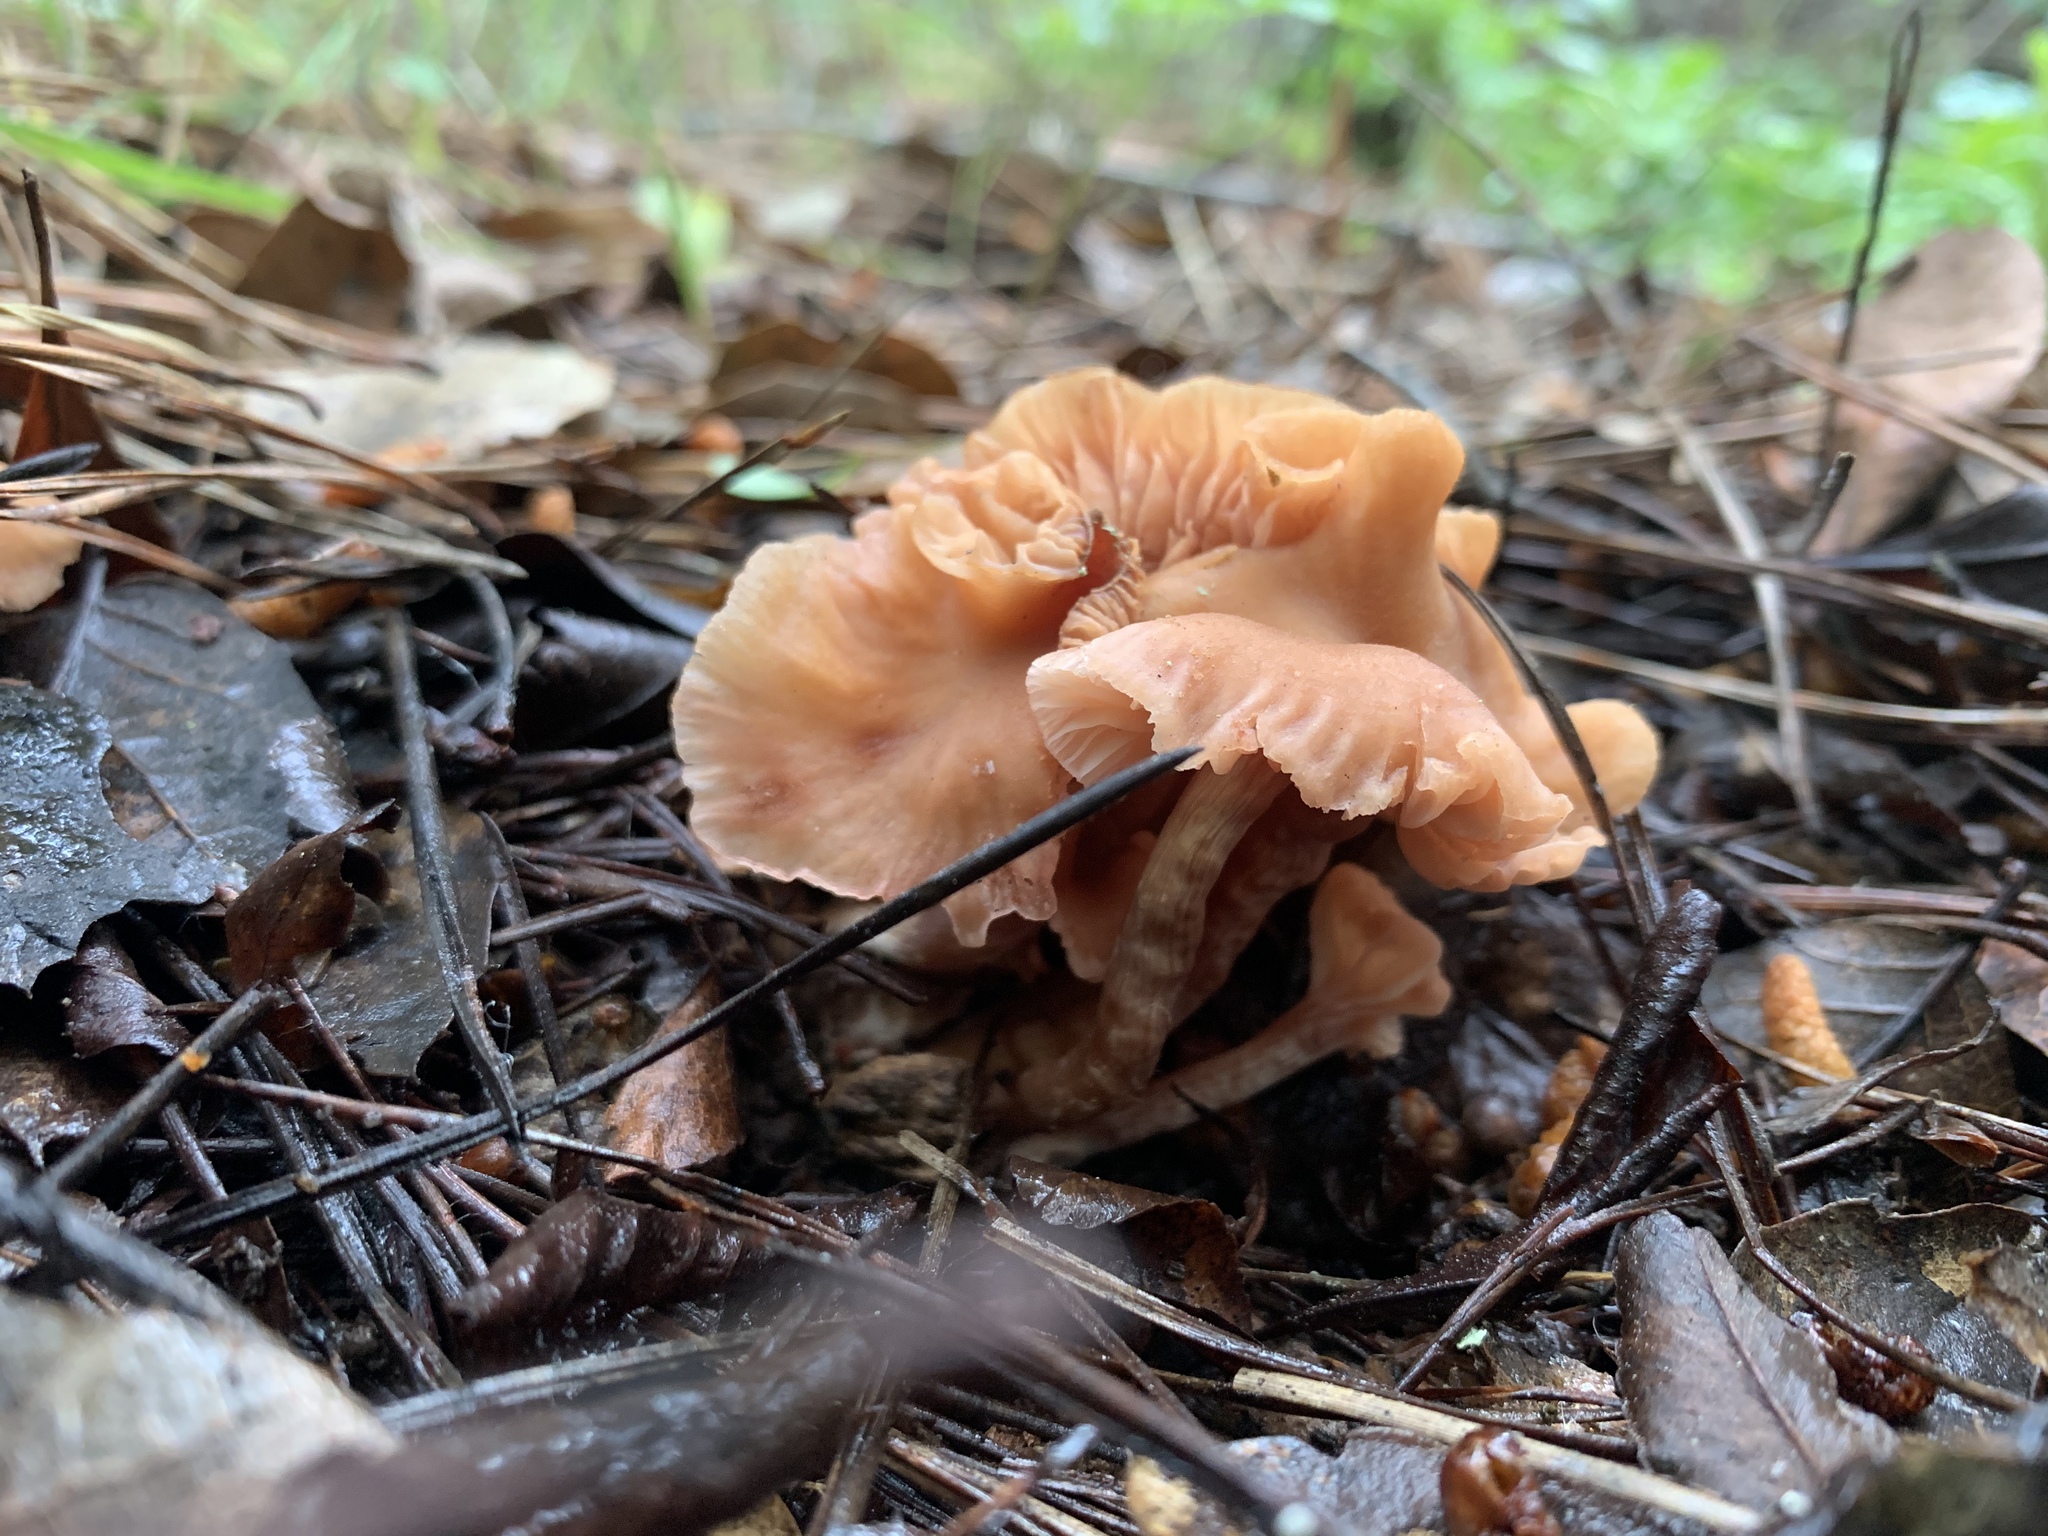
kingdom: Fungi
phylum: Basidiomycota
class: Agaricomycetes
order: Agaricales
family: Hydnangiaceae
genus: Laccaria
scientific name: Laccaria laccata
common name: Deceiver
